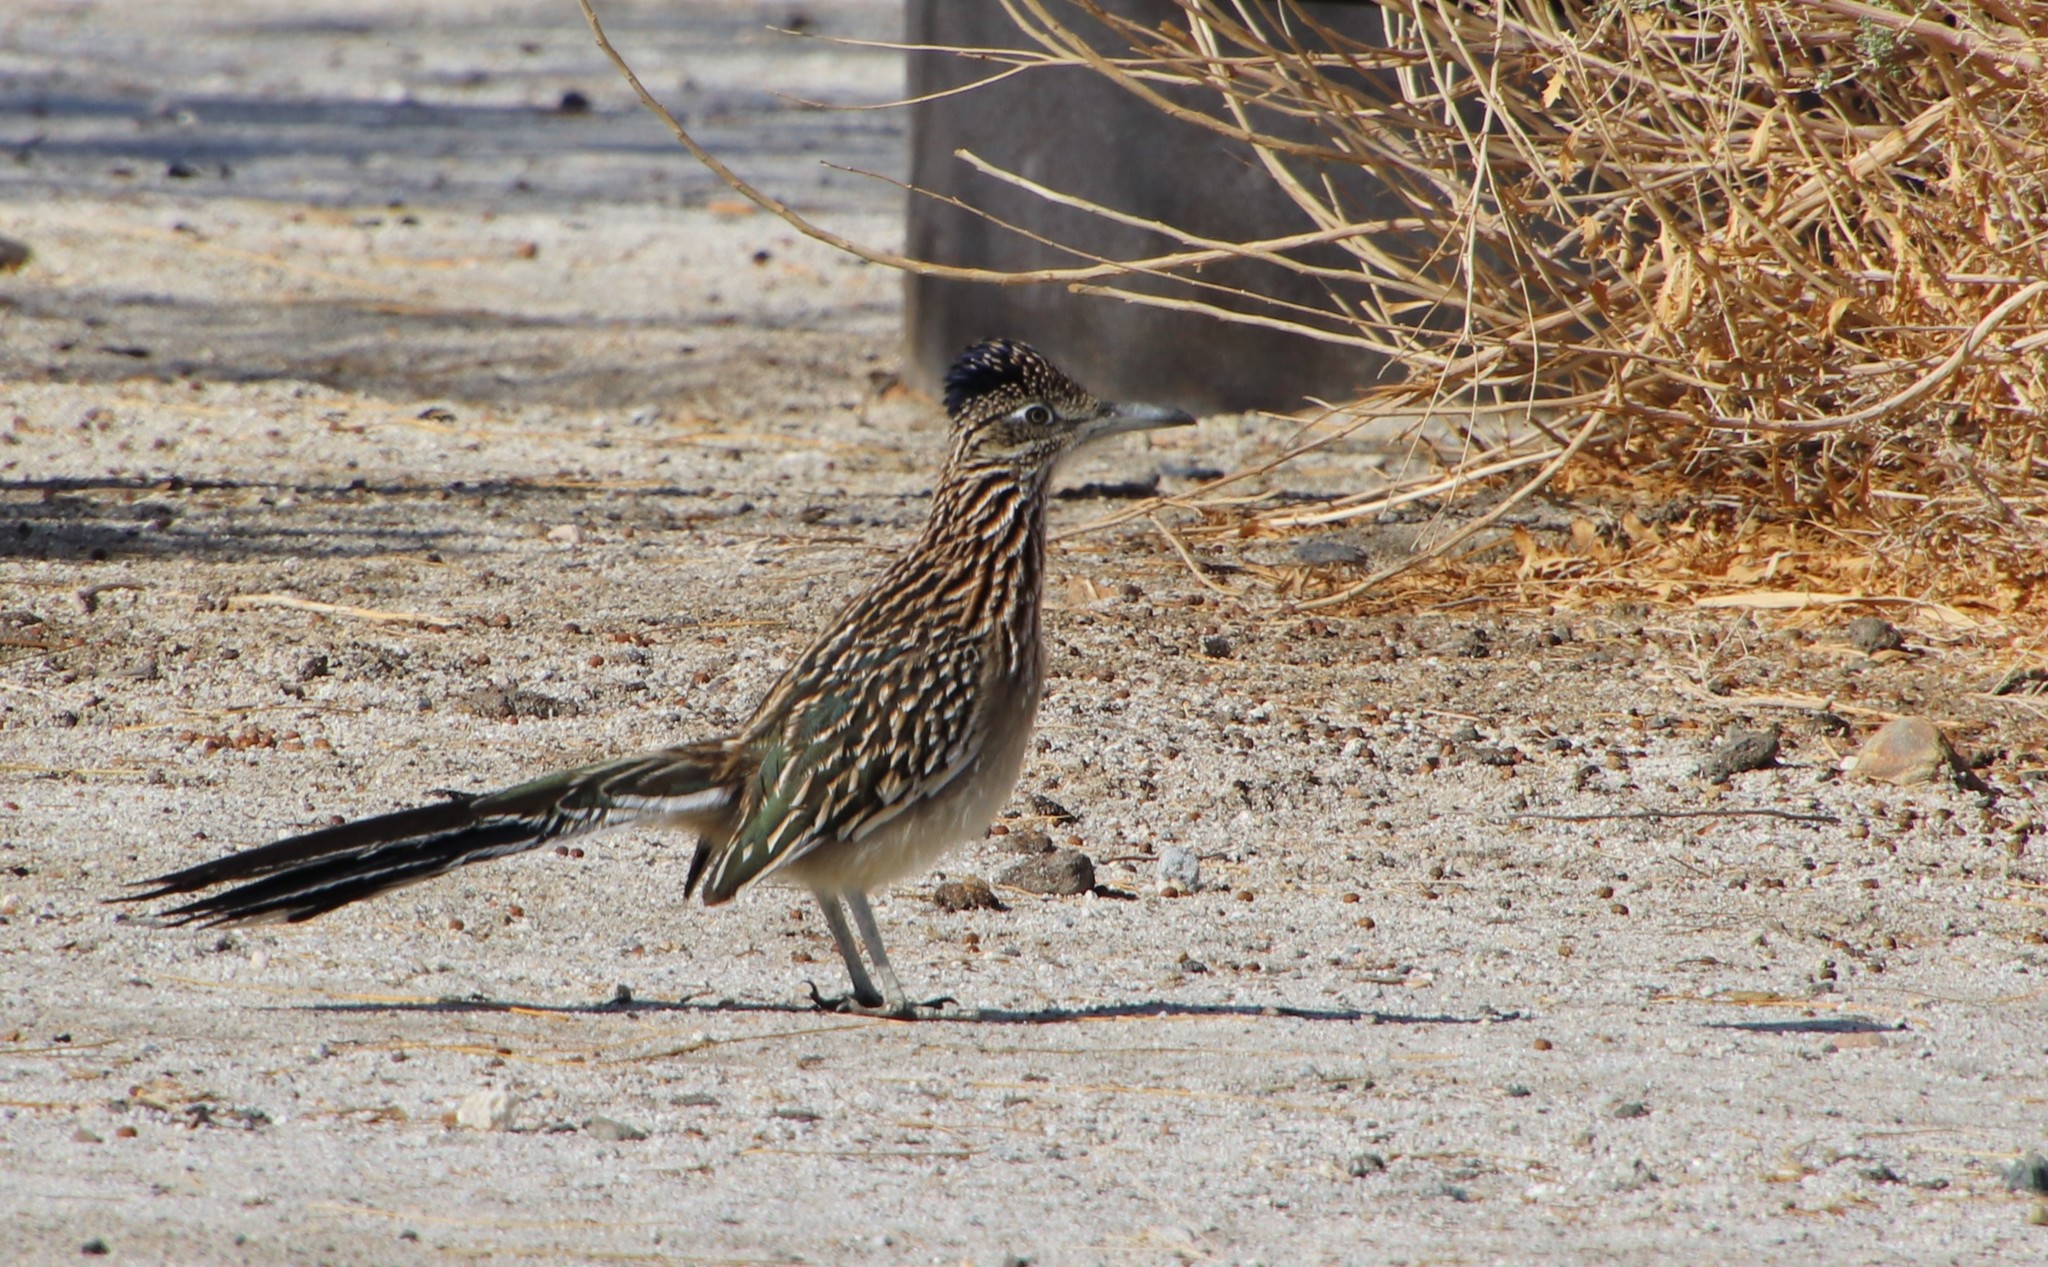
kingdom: Animalia
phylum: Chordata
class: Aves
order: Cuculiformes
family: Cuculidae
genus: Geococcyx
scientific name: Geococcyx californianus
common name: Greater roadrunner
